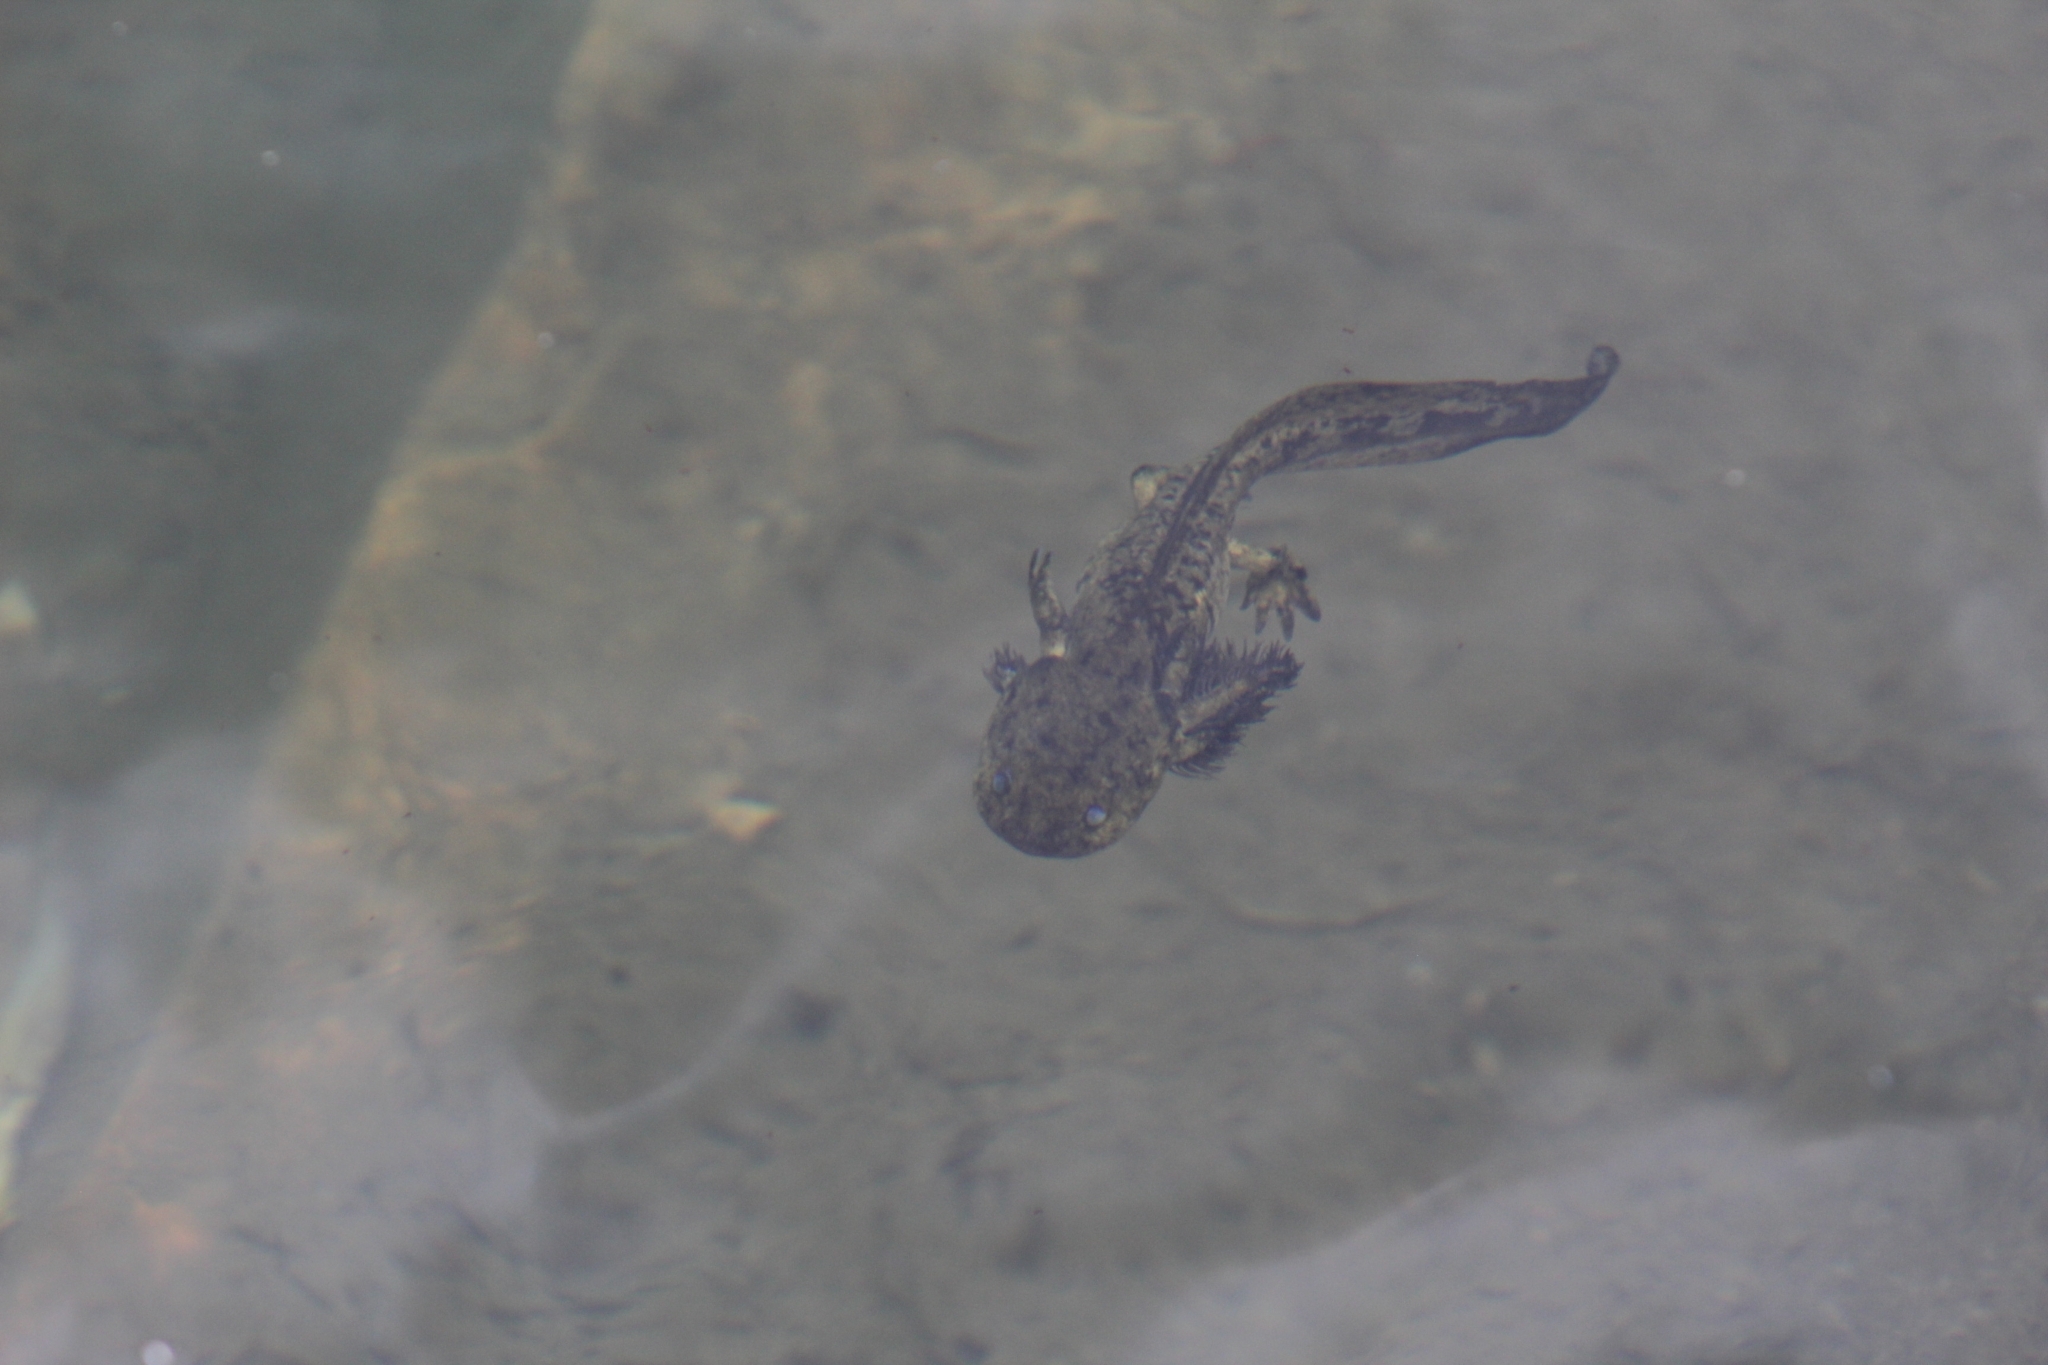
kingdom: Animalia
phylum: Chordata
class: Amphibia
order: Caudata
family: Ambystomatidae
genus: Ambystoma
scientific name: Ambystoma mavortium
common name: Western tiger salamander
